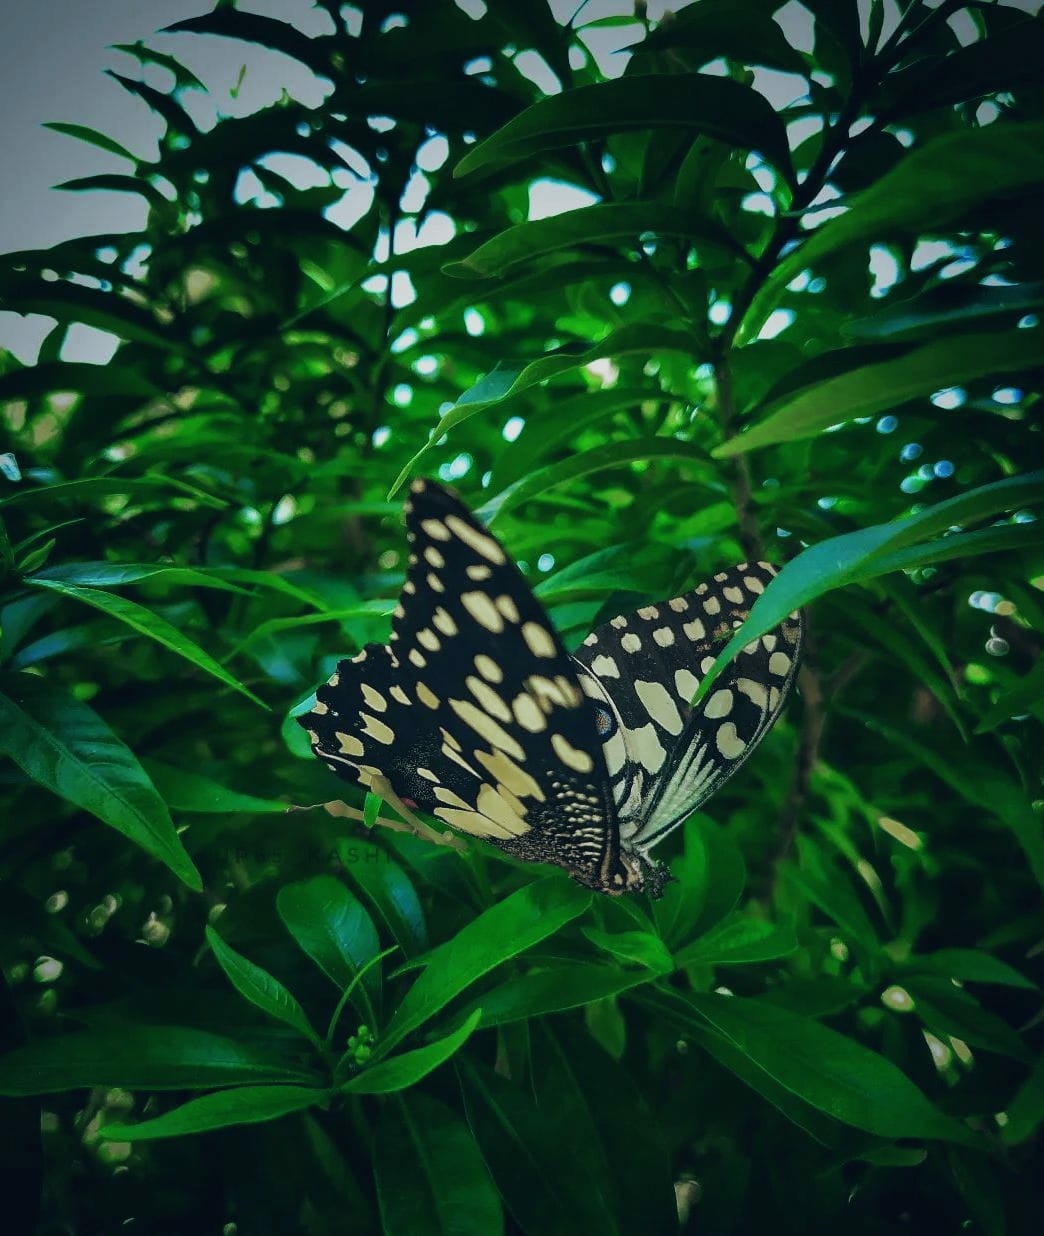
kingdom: Animalia
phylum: Arthropoda
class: Insecta
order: Lepidoptera
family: Papilionidae
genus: Papilio
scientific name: Papilio demoleus
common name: Lime butterfly
